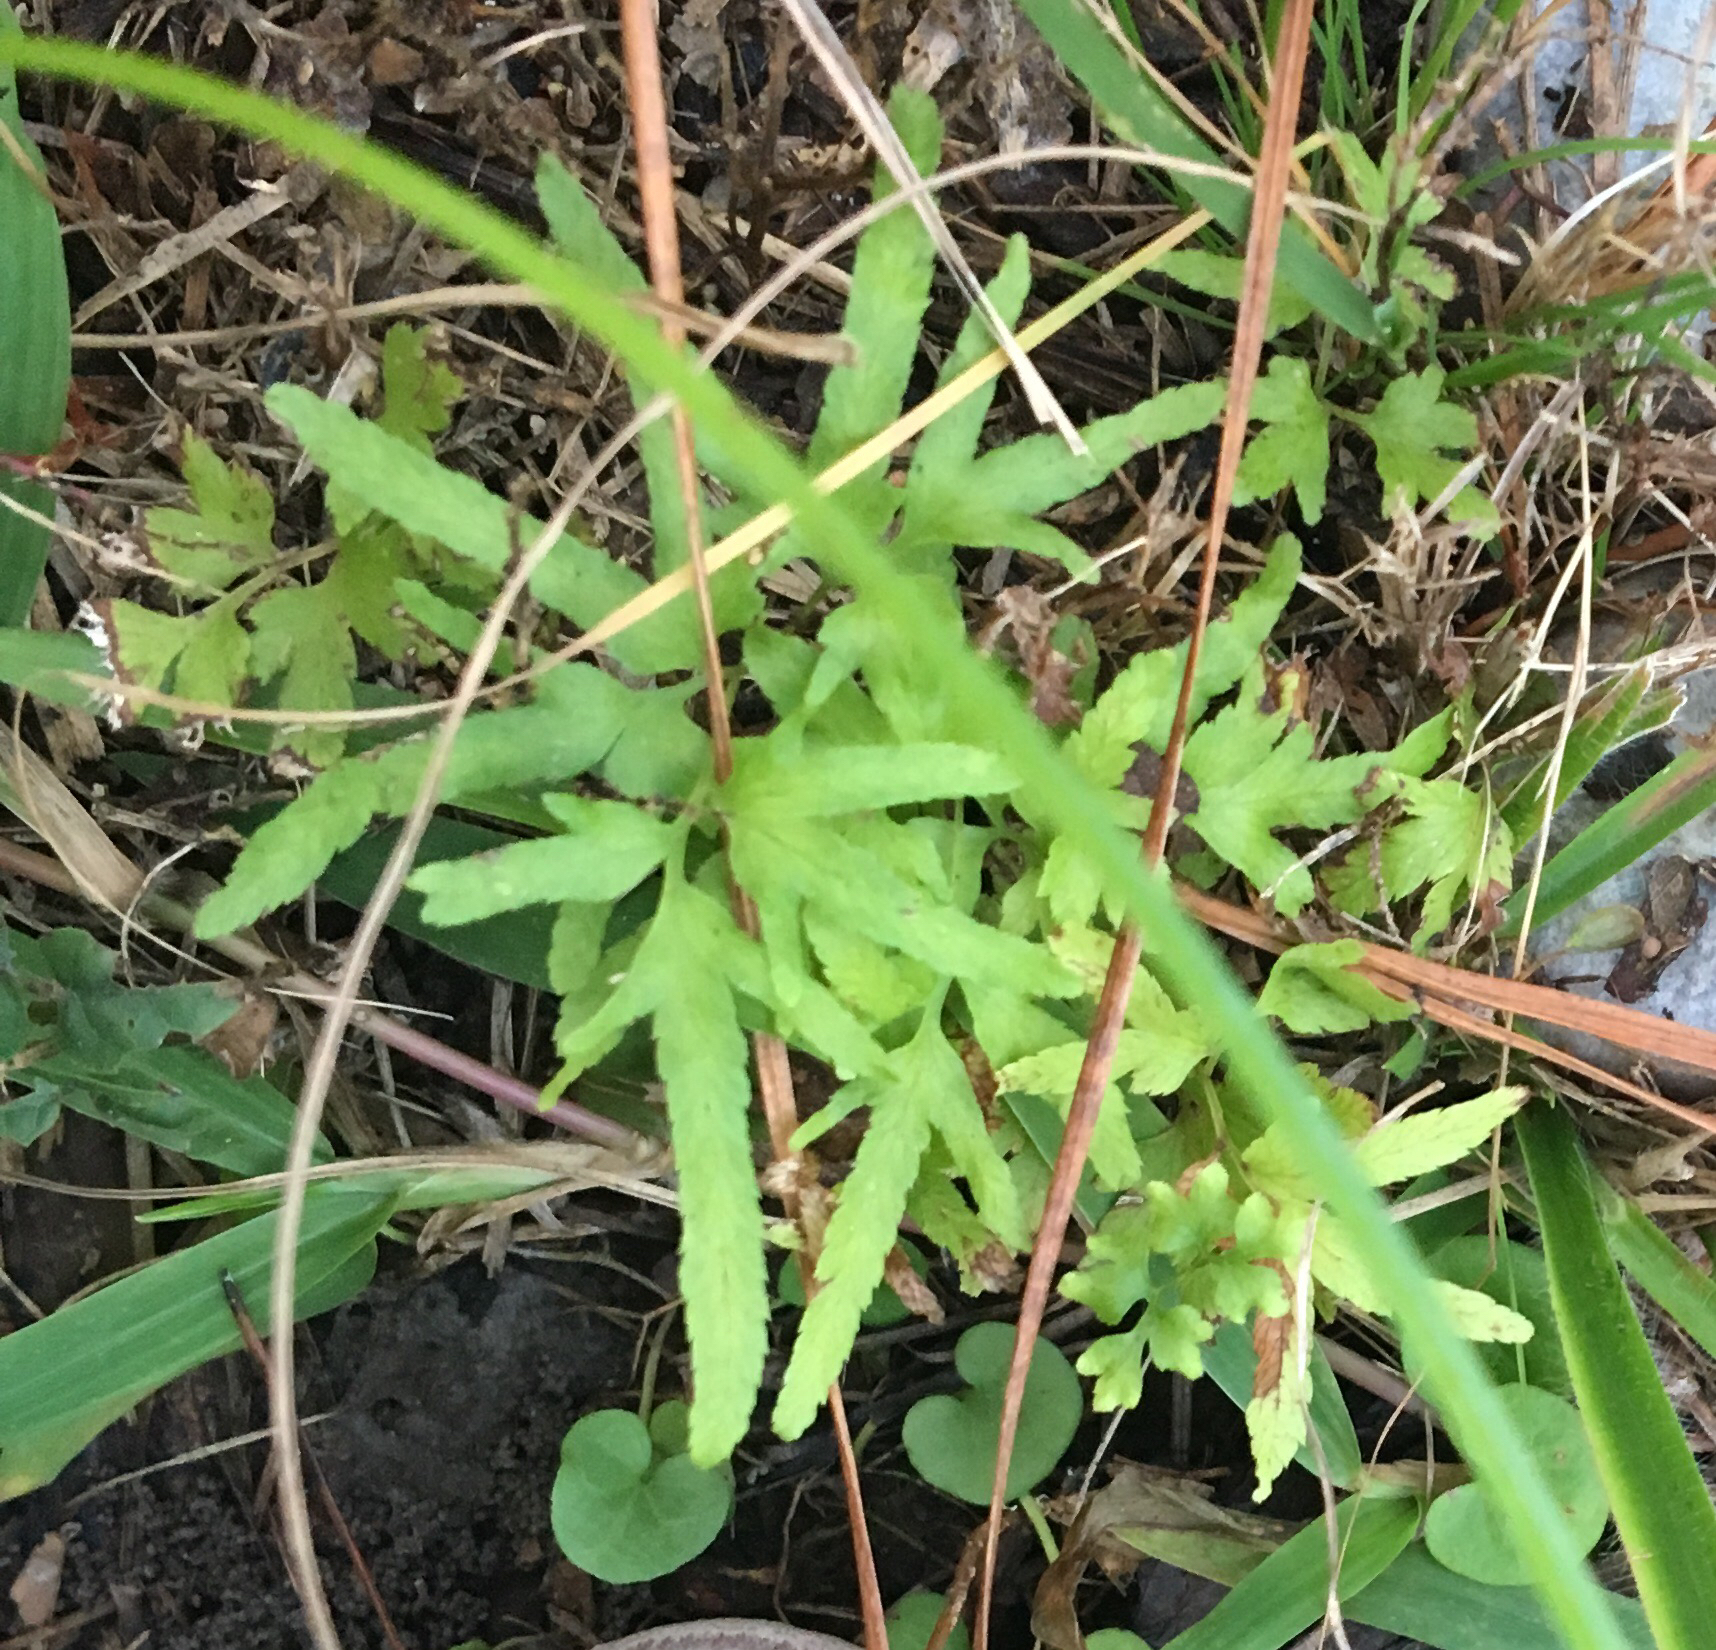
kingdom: Plantae
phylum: Tracheophyta
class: Polypodiopsida
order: Schizaeales
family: Lygodiaceae
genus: Lygodium
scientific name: Lygodium japonicum
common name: Japanese climbing fern
